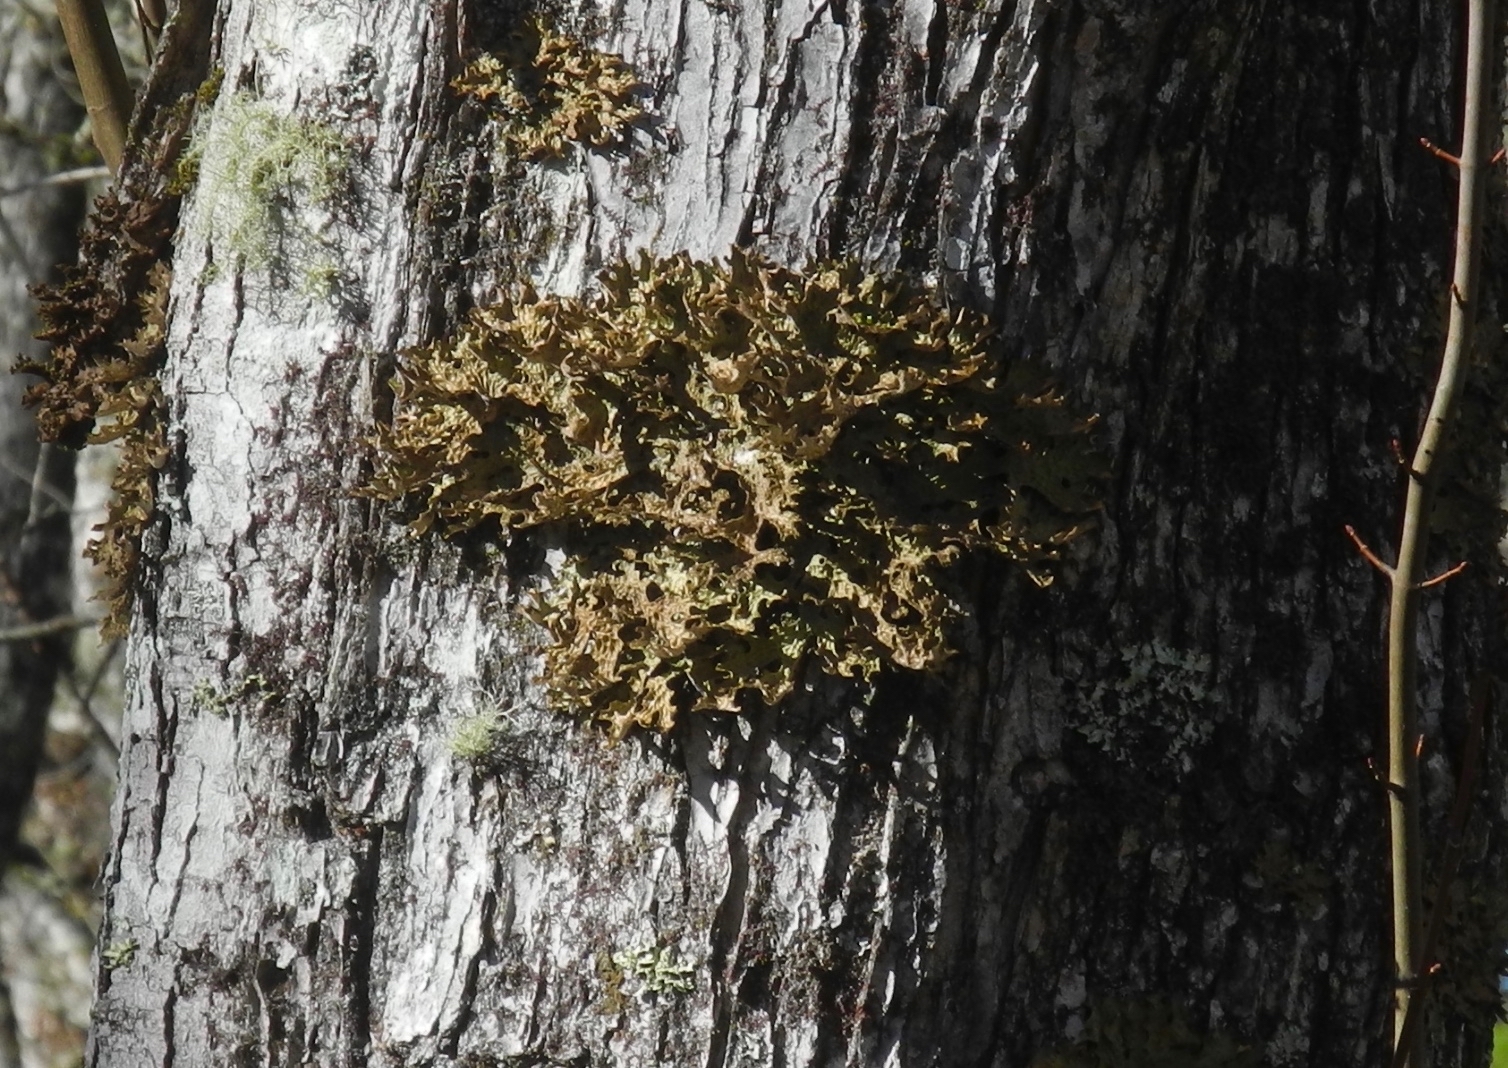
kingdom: Fungi
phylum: Ascomycota
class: Lecanoromycetes
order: Peltigerales
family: Lobariaceae
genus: Lobaria
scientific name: Lobaria pulmonaria
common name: Lungwort
